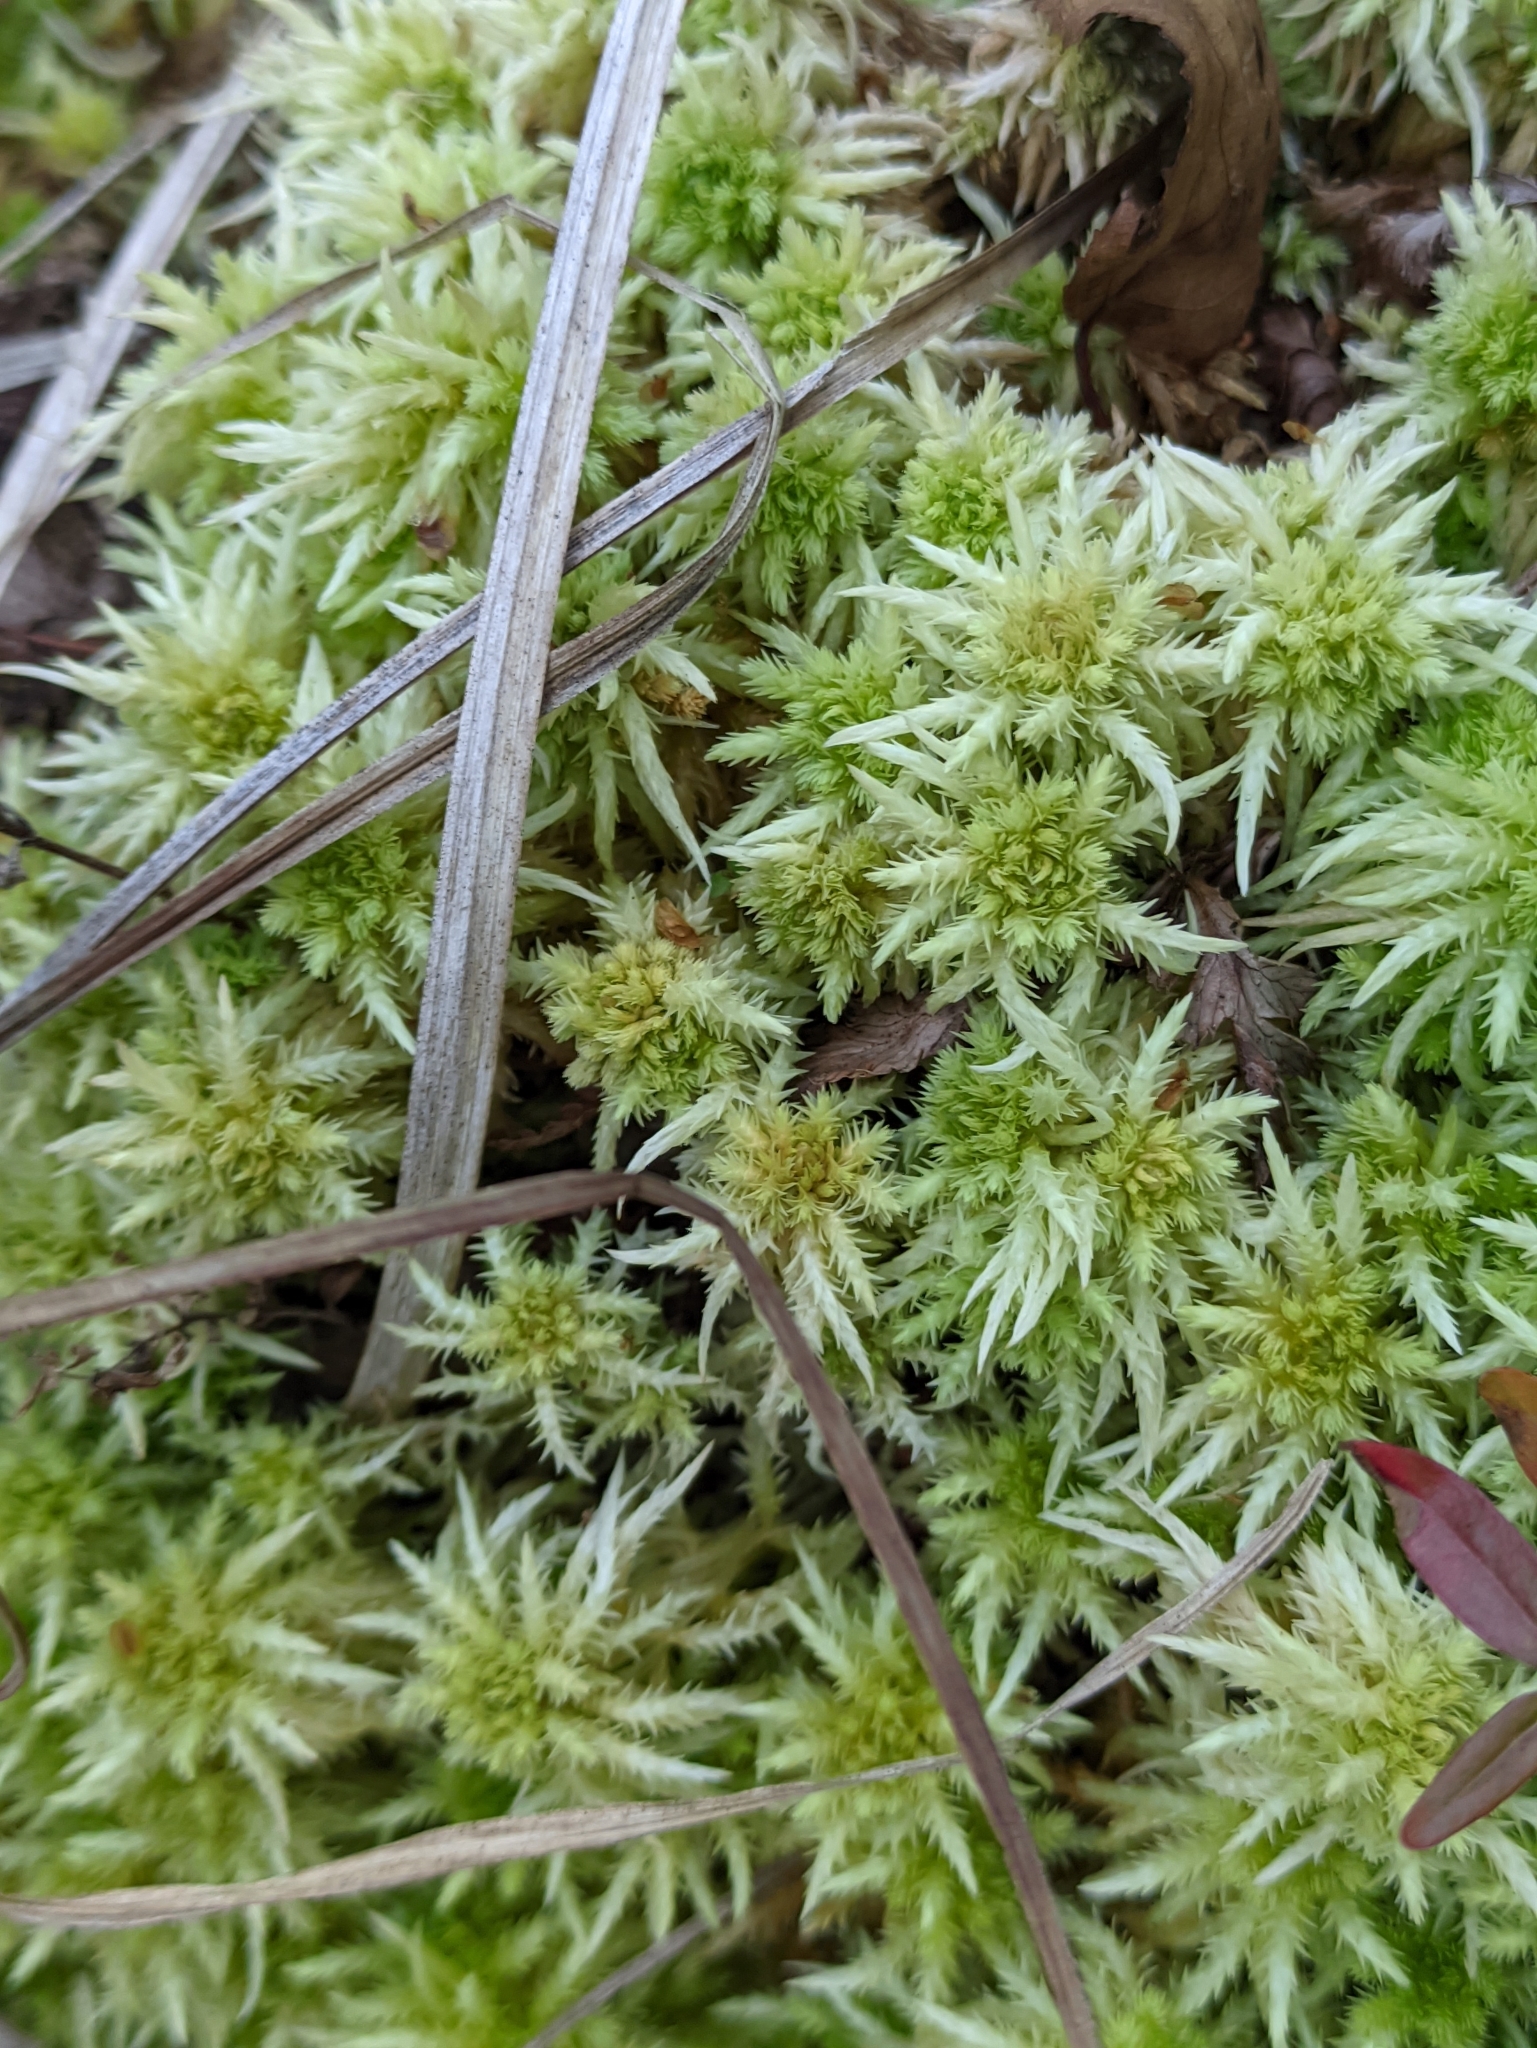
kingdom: Plantae
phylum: Bryophyta
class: Sphagnopsida
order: Sphagnales
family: Sphagnaceae
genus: Sphagnum
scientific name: Sphagnum squarrosum
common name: Shaggy peat moss
